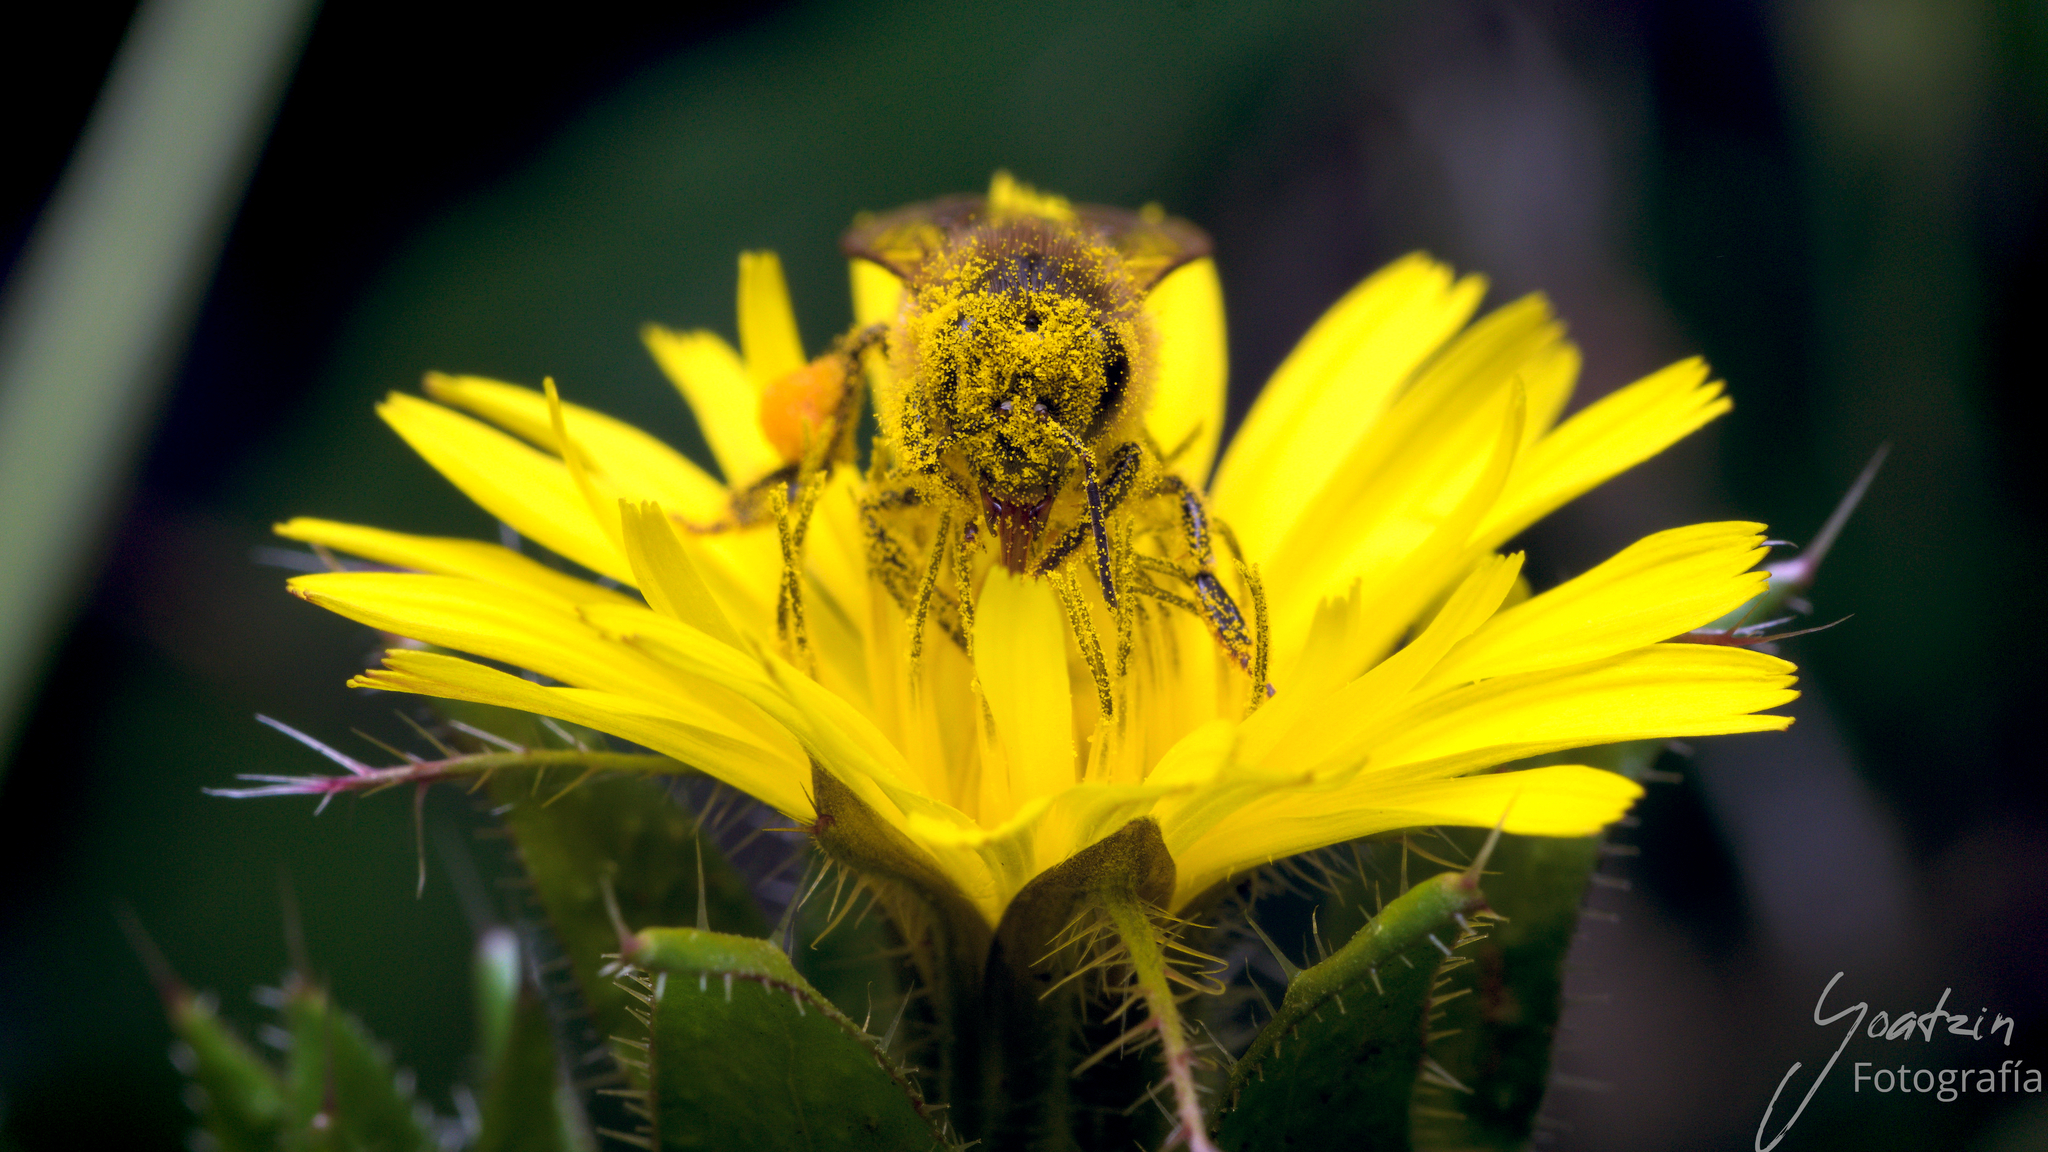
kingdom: Animalia
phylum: Arthropoda
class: Insecta
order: Hymenoptera
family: Apidae
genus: Apis
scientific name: Apis mellifera
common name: Honey bee
